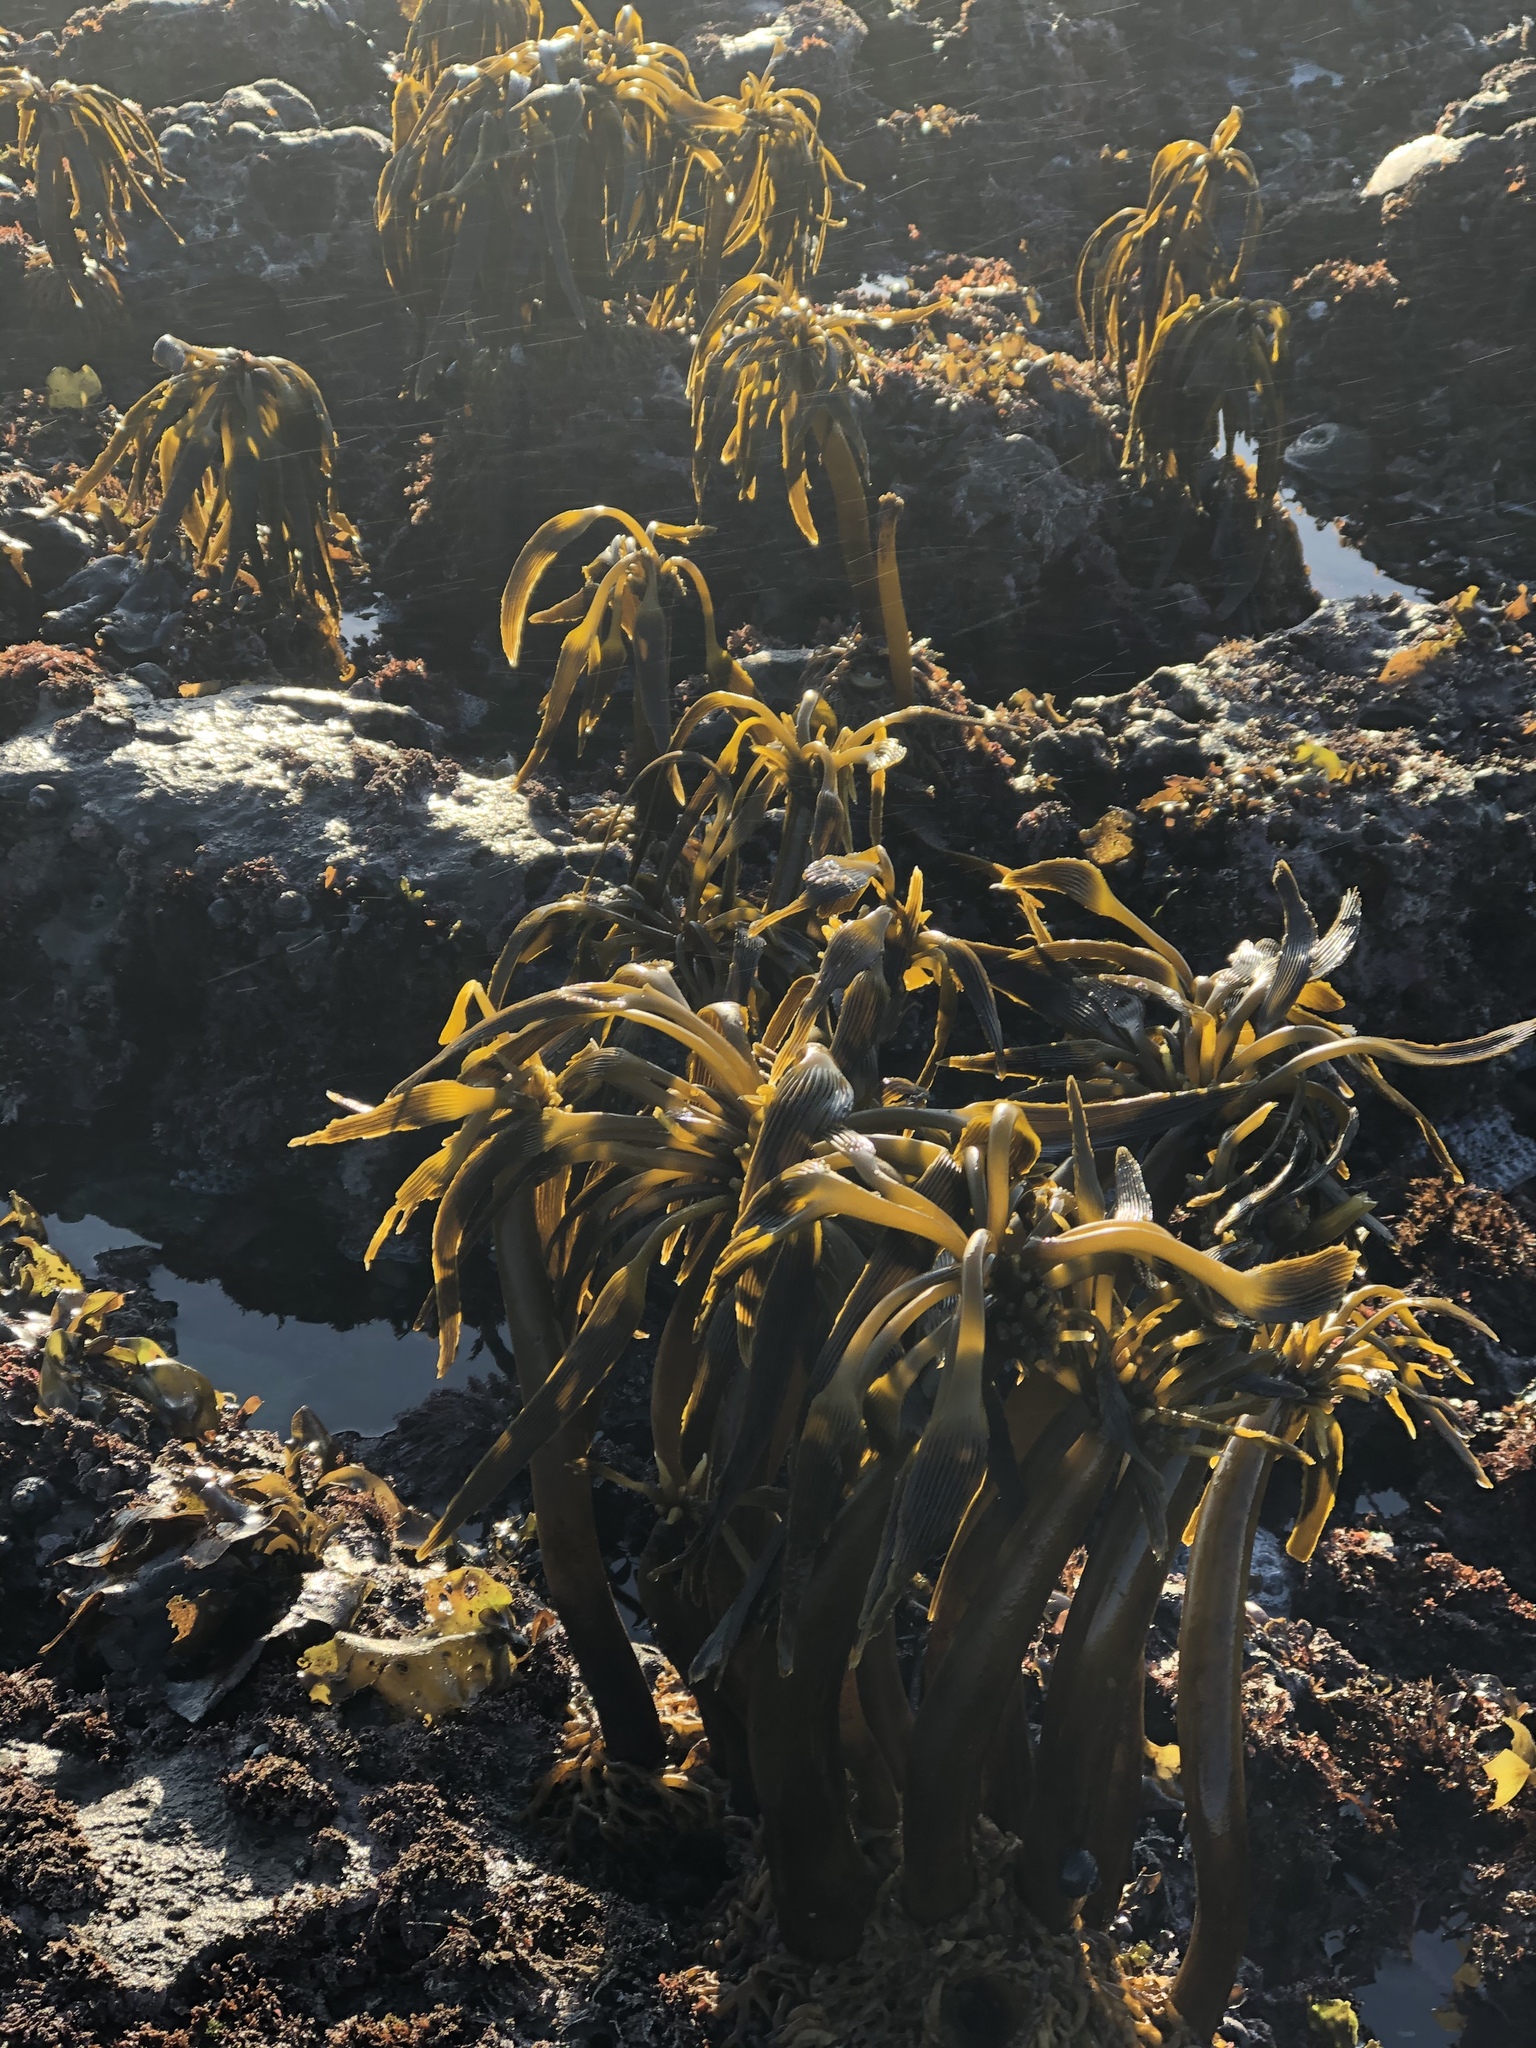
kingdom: Chromista
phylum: Ochrophyta
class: Phaeophyceae
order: Laminariales
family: Laminariaceae
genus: Postelsia
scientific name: Postelsia palmiformis
